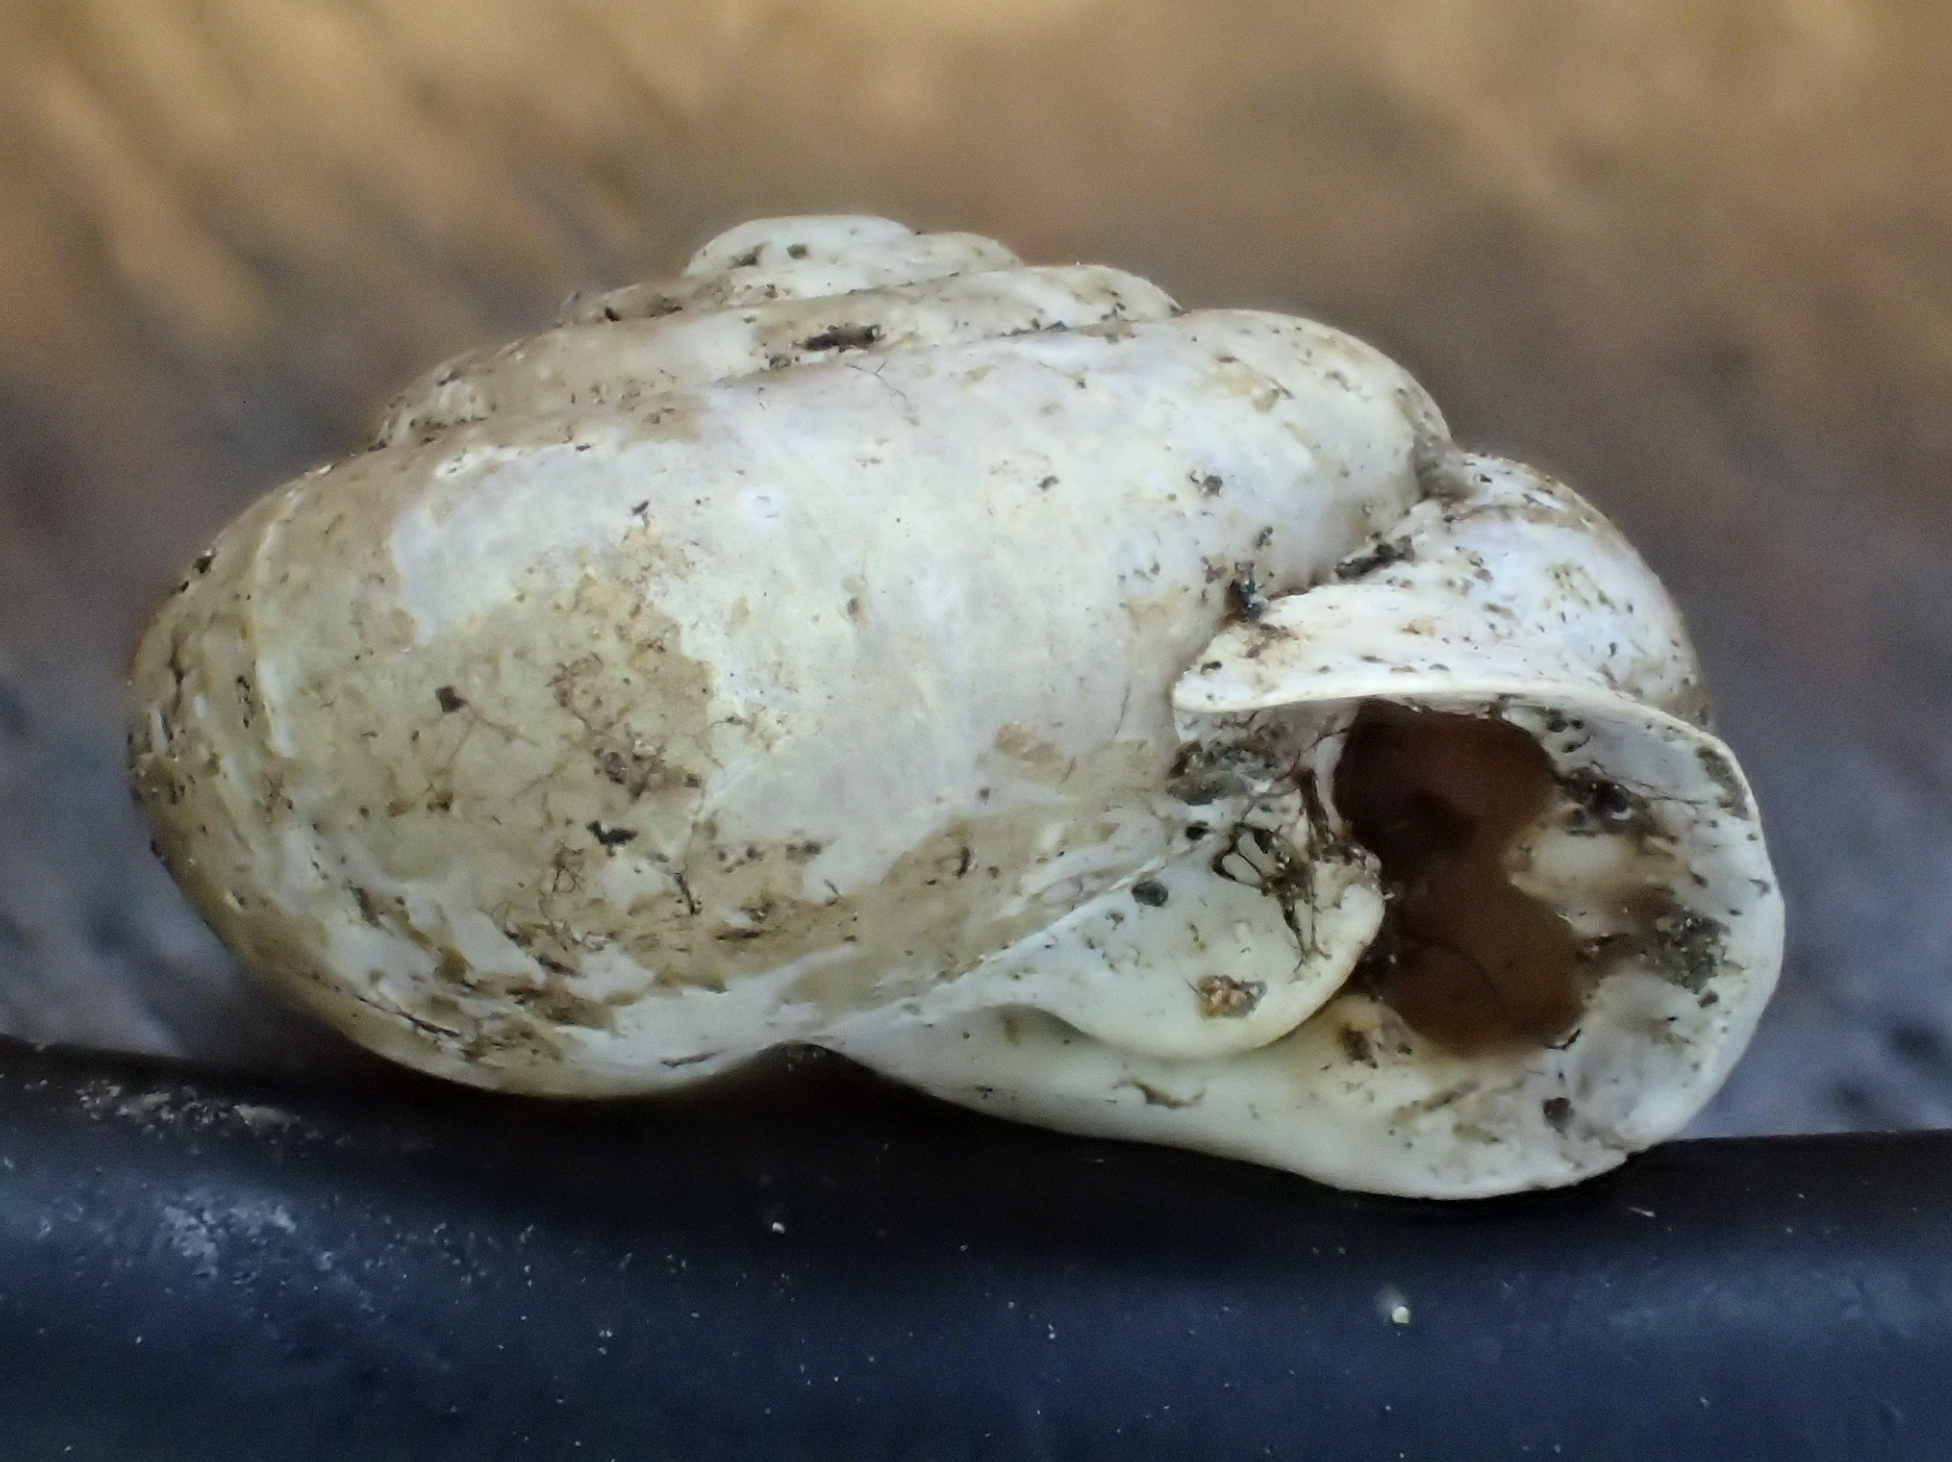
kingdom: Animalia
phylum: Mollusca
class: Gastropoda
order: Stylommatophora
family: Helicidae
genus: Isognomostoma
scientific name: Isognomostoma isognomostomos
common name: Mask snail
